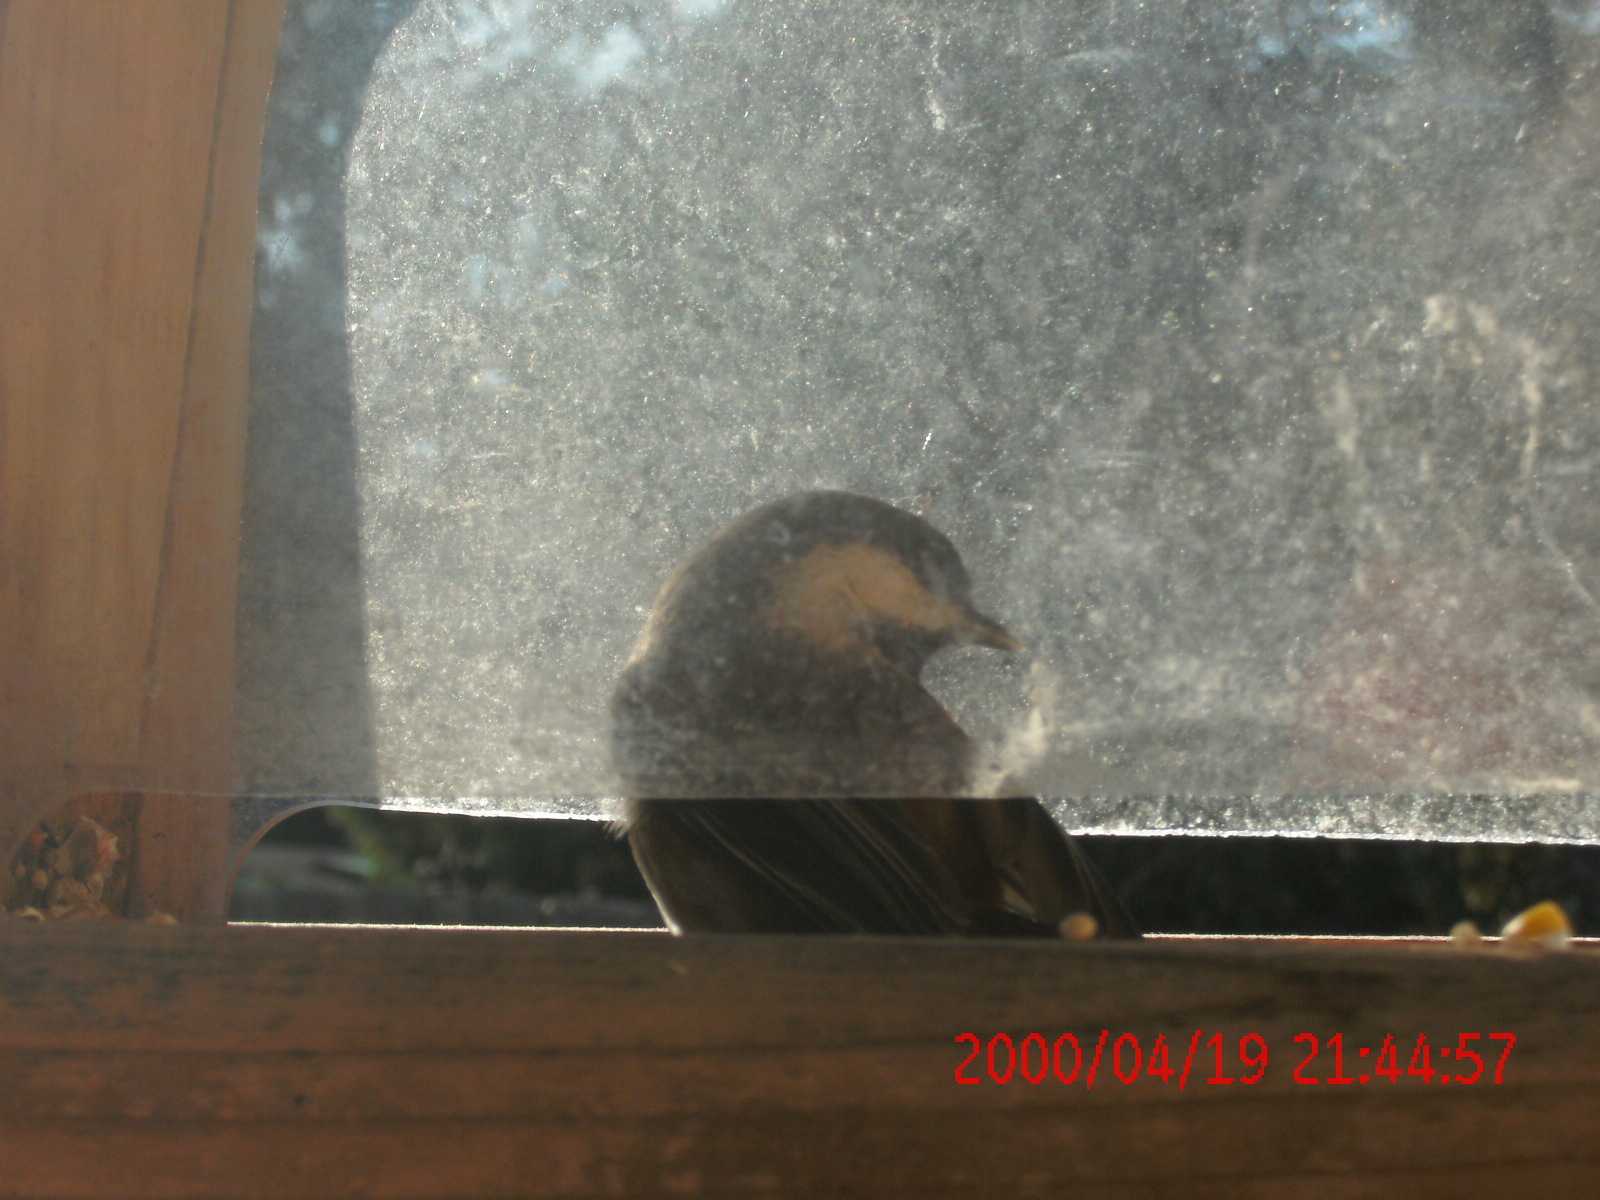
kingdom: Animalia
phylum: Chordata
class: Aves
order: Passeriformes
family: Paridae
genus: Poecile
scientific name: Poecile rufescens
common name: Chestnut-backed chickadee
